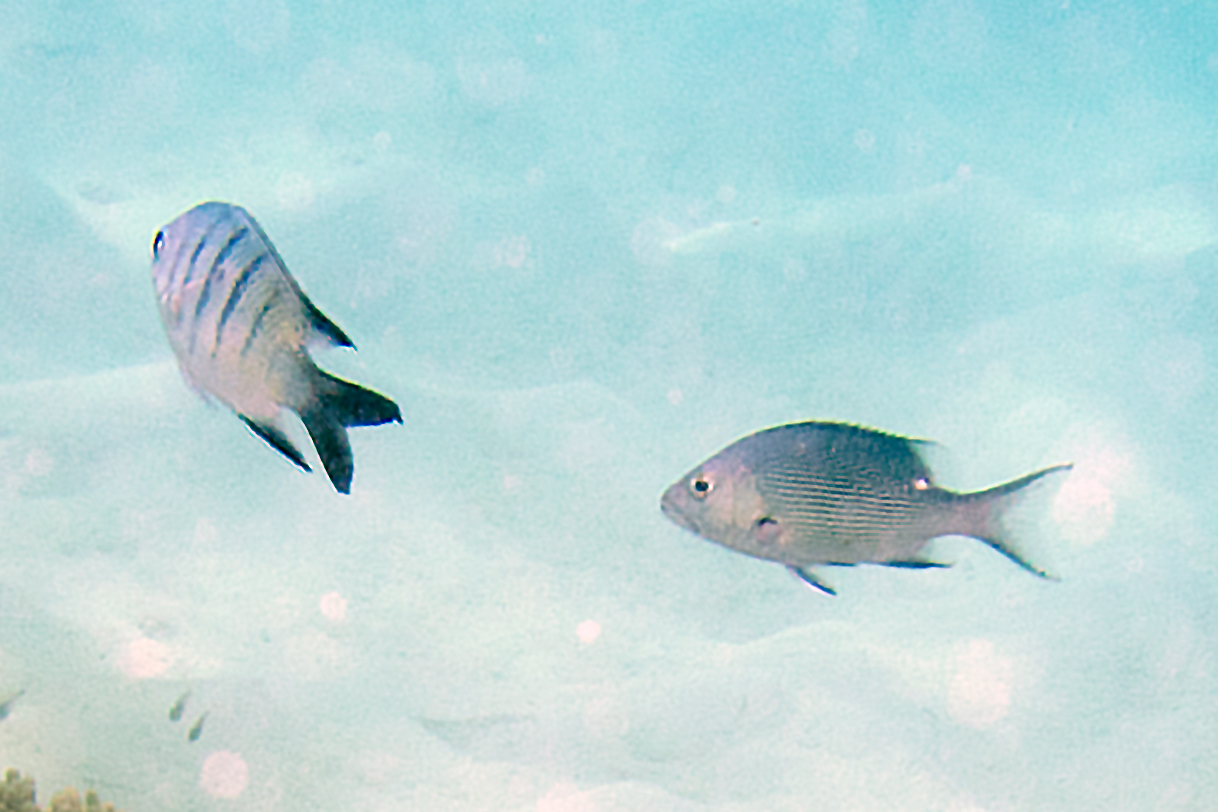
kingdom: Animalia
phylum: Chordata
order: Perciformes
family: Lutjanidae
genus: Lutjanus
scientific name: Lutjanus bohar
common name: Red bass
